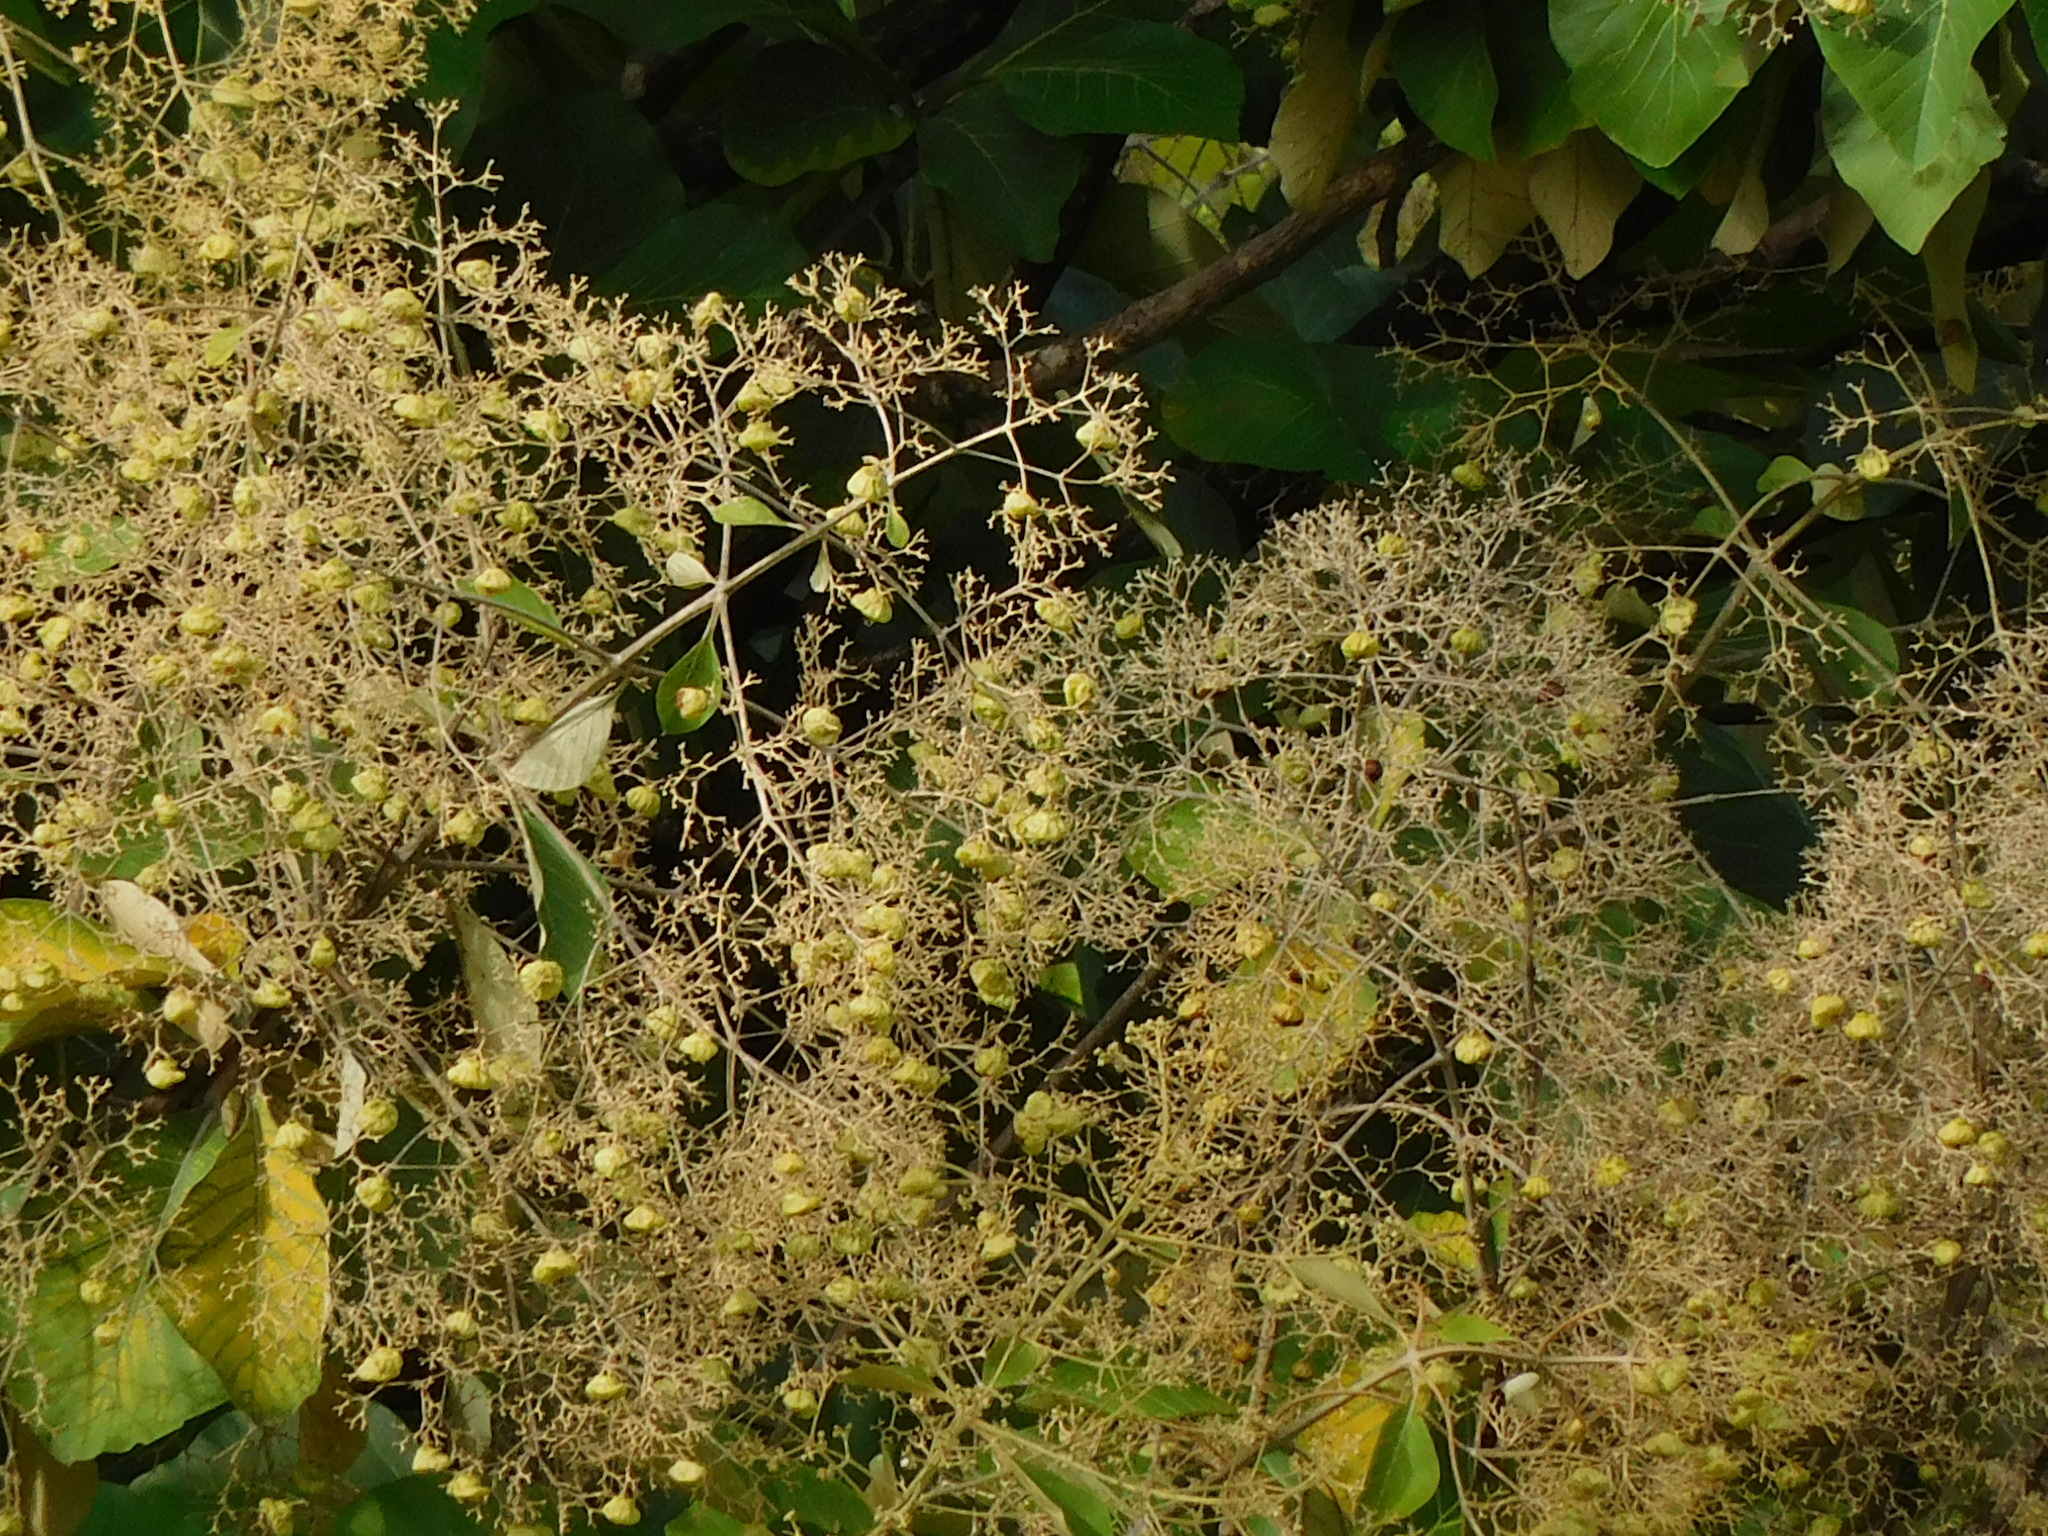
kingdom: Plantae
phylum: Tracheophyta
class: Magnoliopsida
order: Lamiales
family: Lamiaceae
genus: Tectona
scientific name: Tectona grandis
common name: Teak
